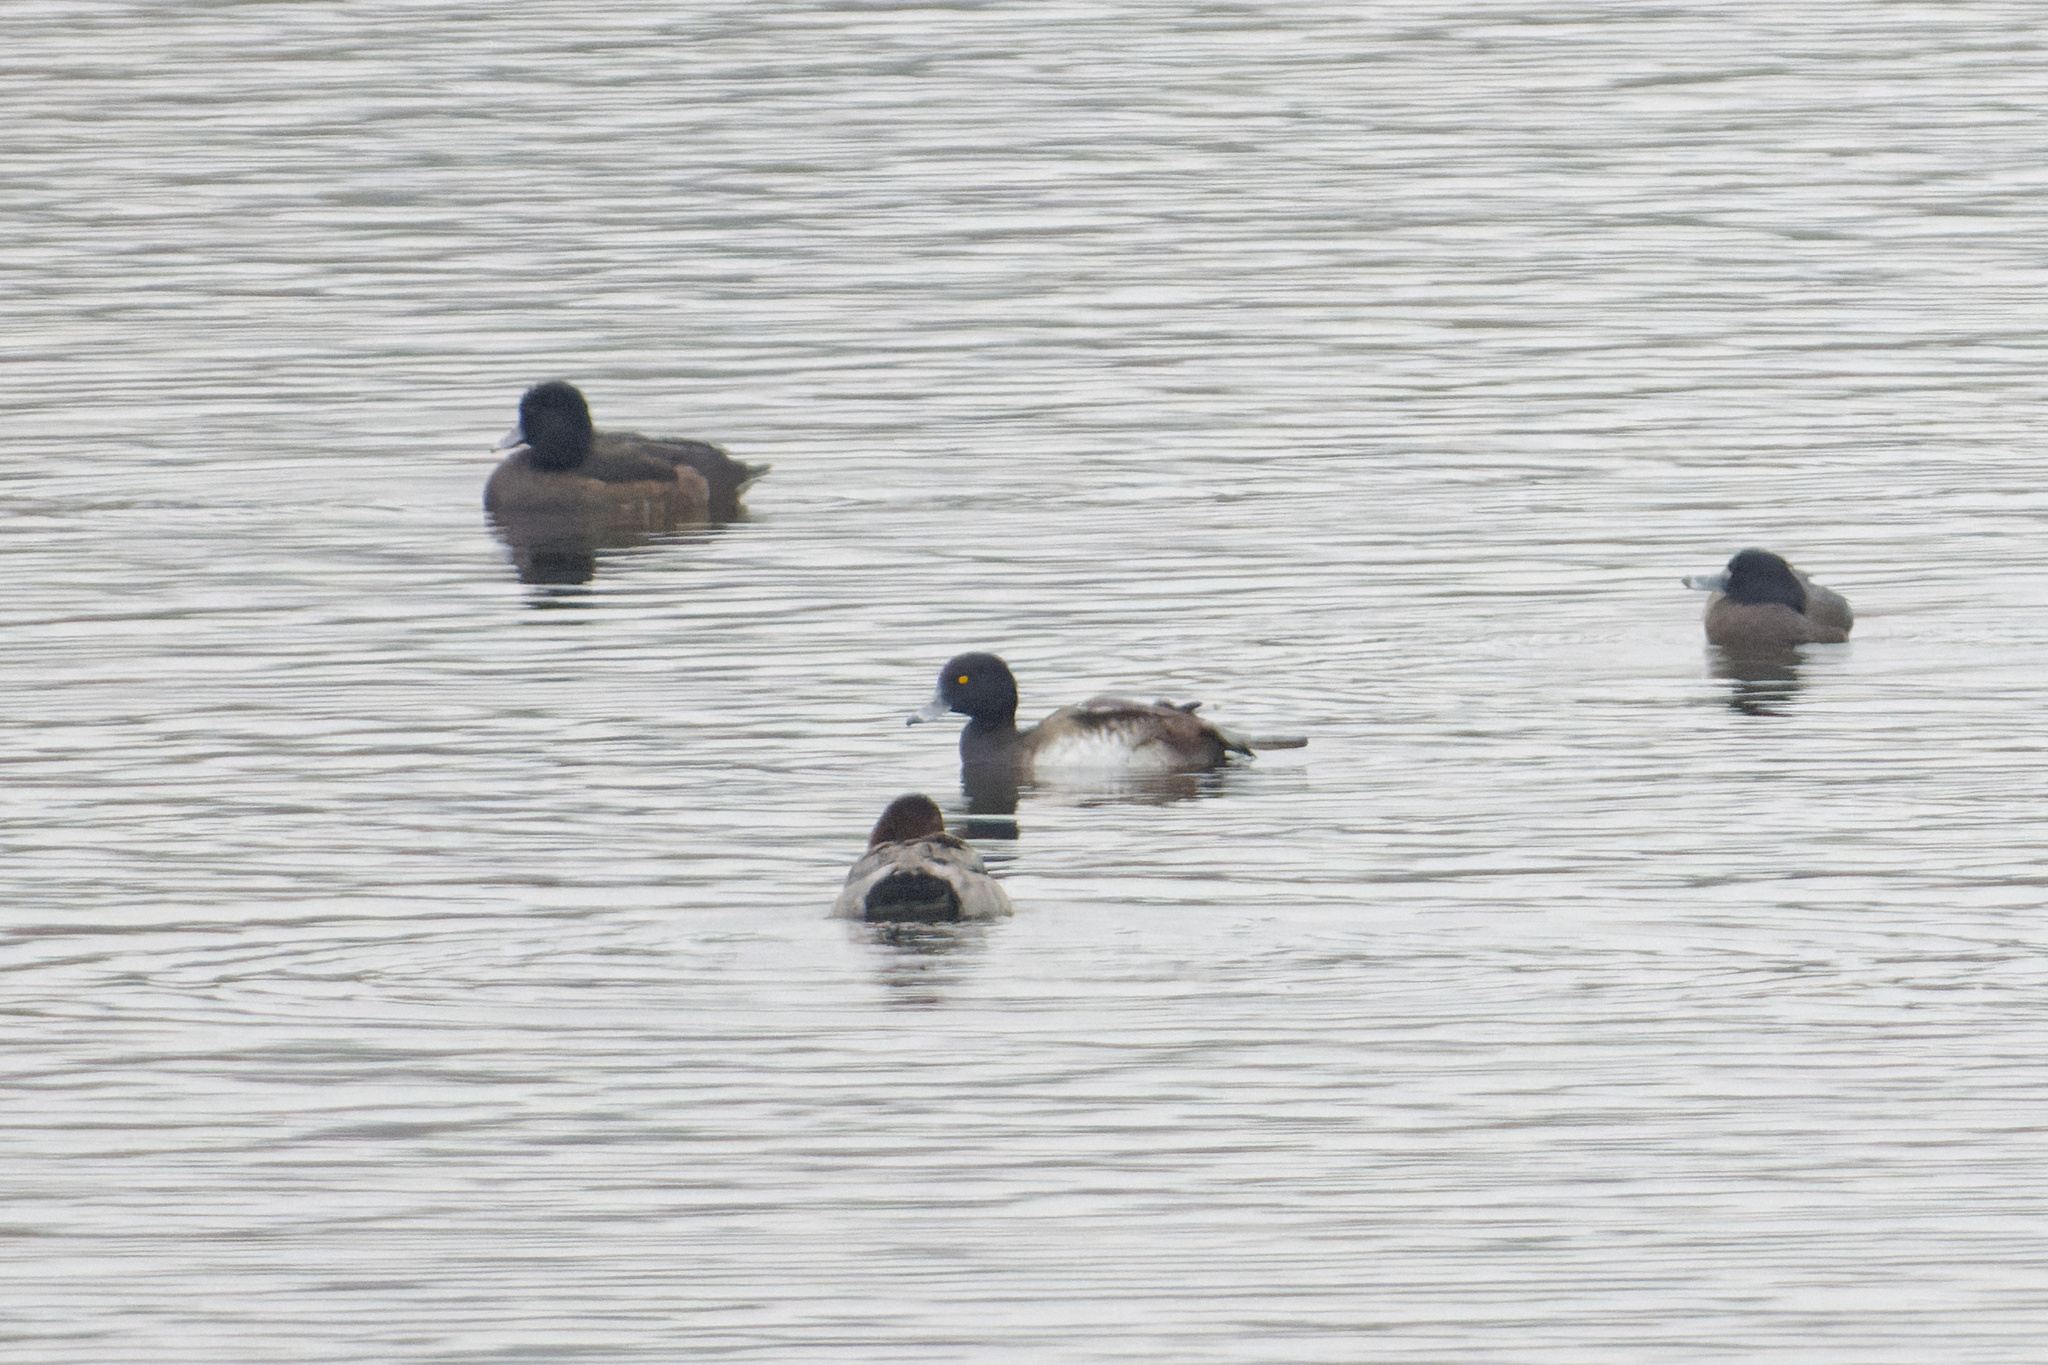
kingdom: Animalia
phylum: Chordata
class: Aves
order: Anseriformes
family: Anatidae
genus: Aythya
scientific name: Aythya fuligula
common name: Tufted duck
